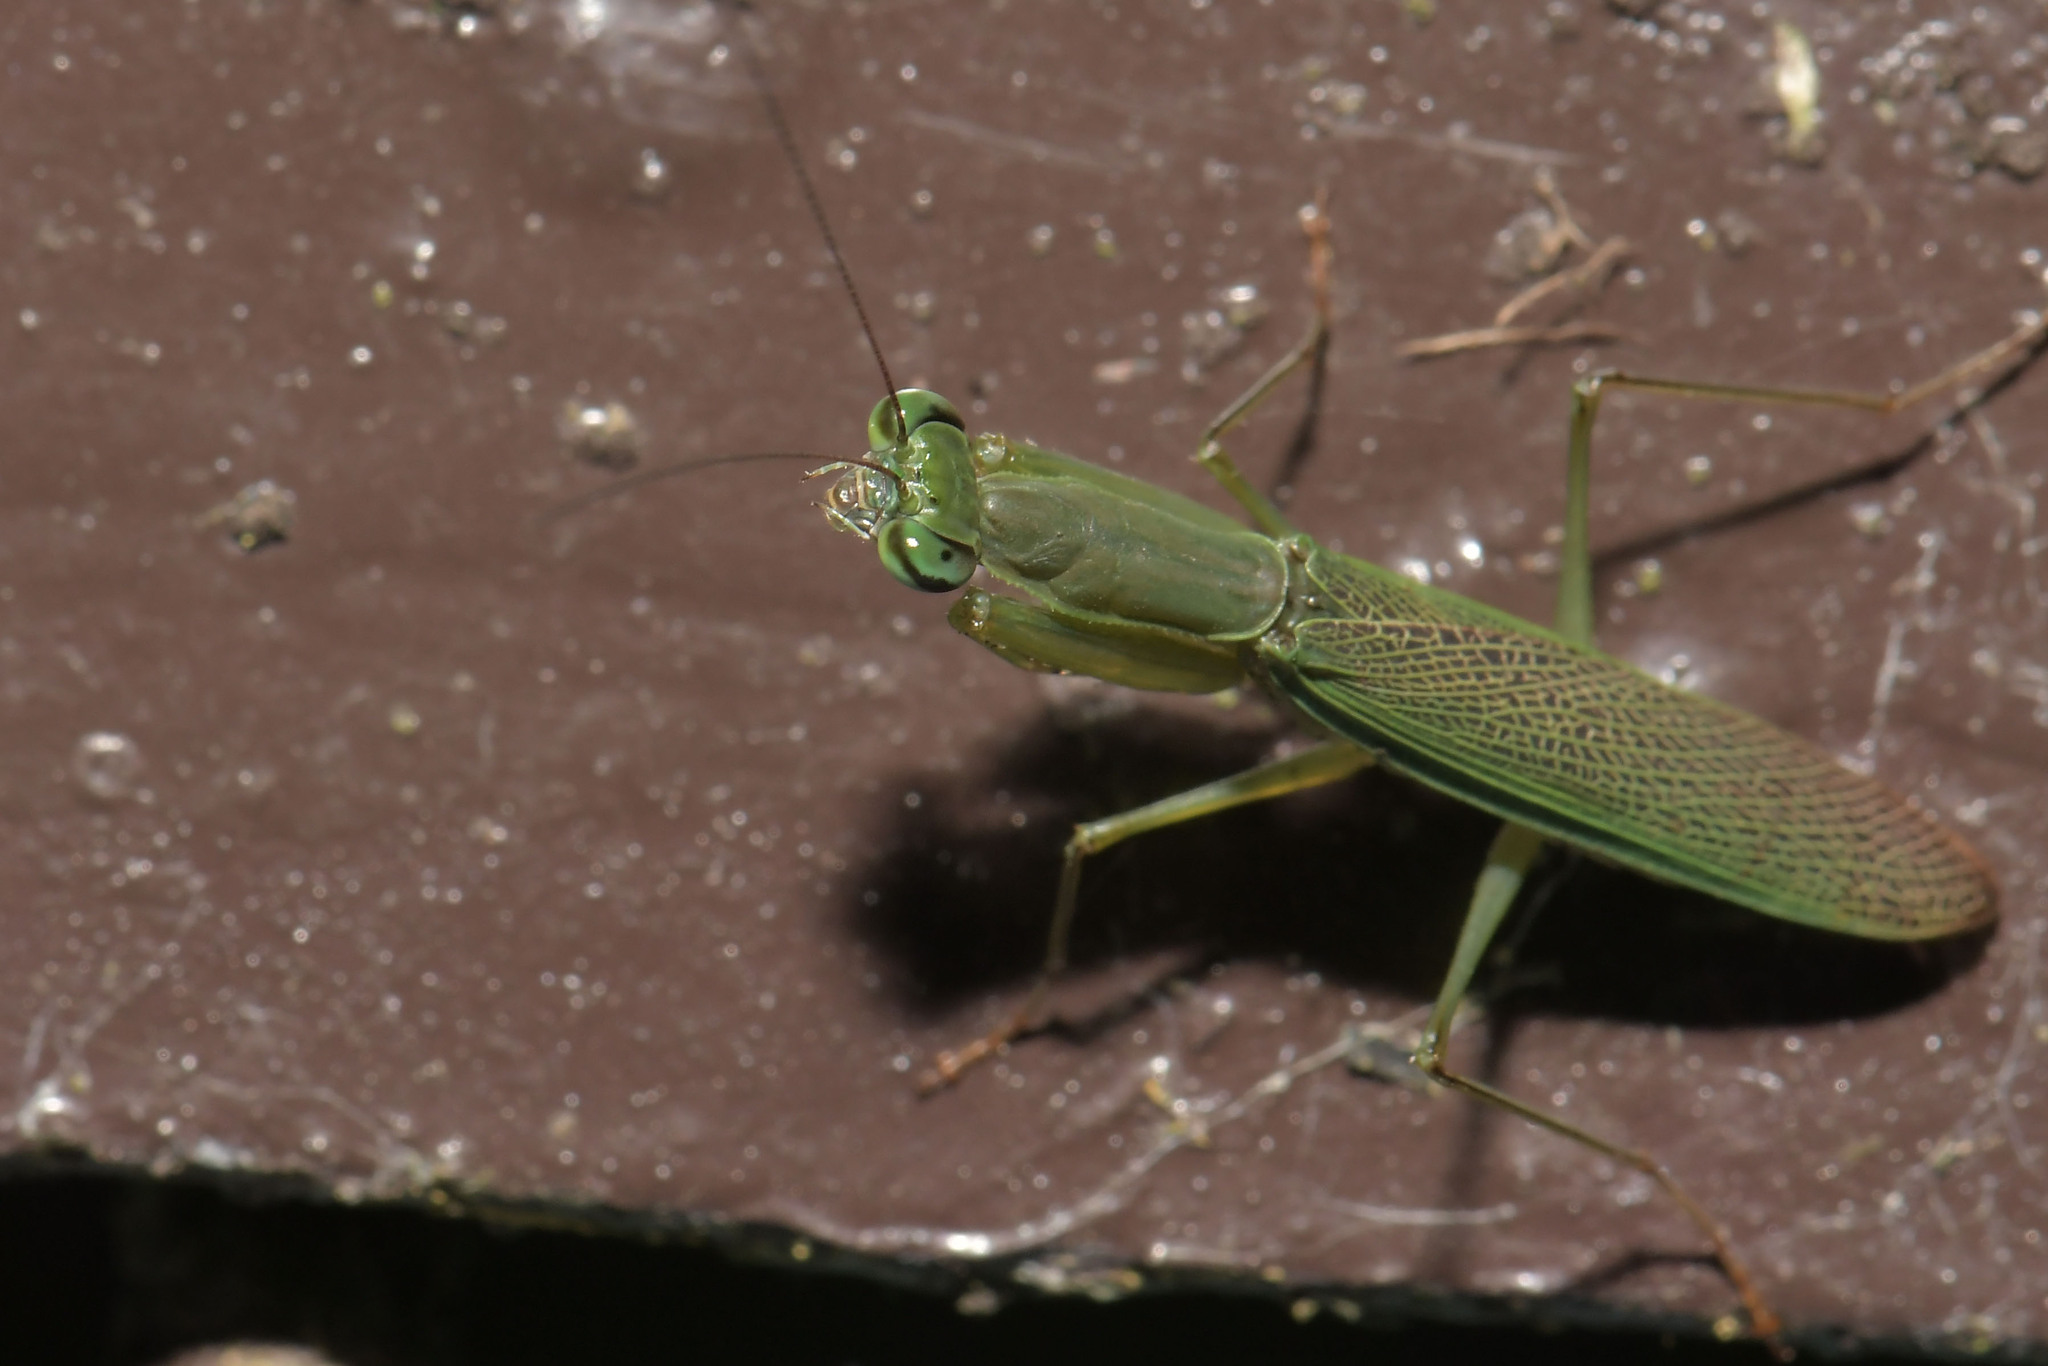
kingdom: Animalia
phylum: Arthropoda
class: Insecta
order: Mantodea
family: Hymenopodidae
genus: Odontomantis
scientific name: Odontomantis planiceps
